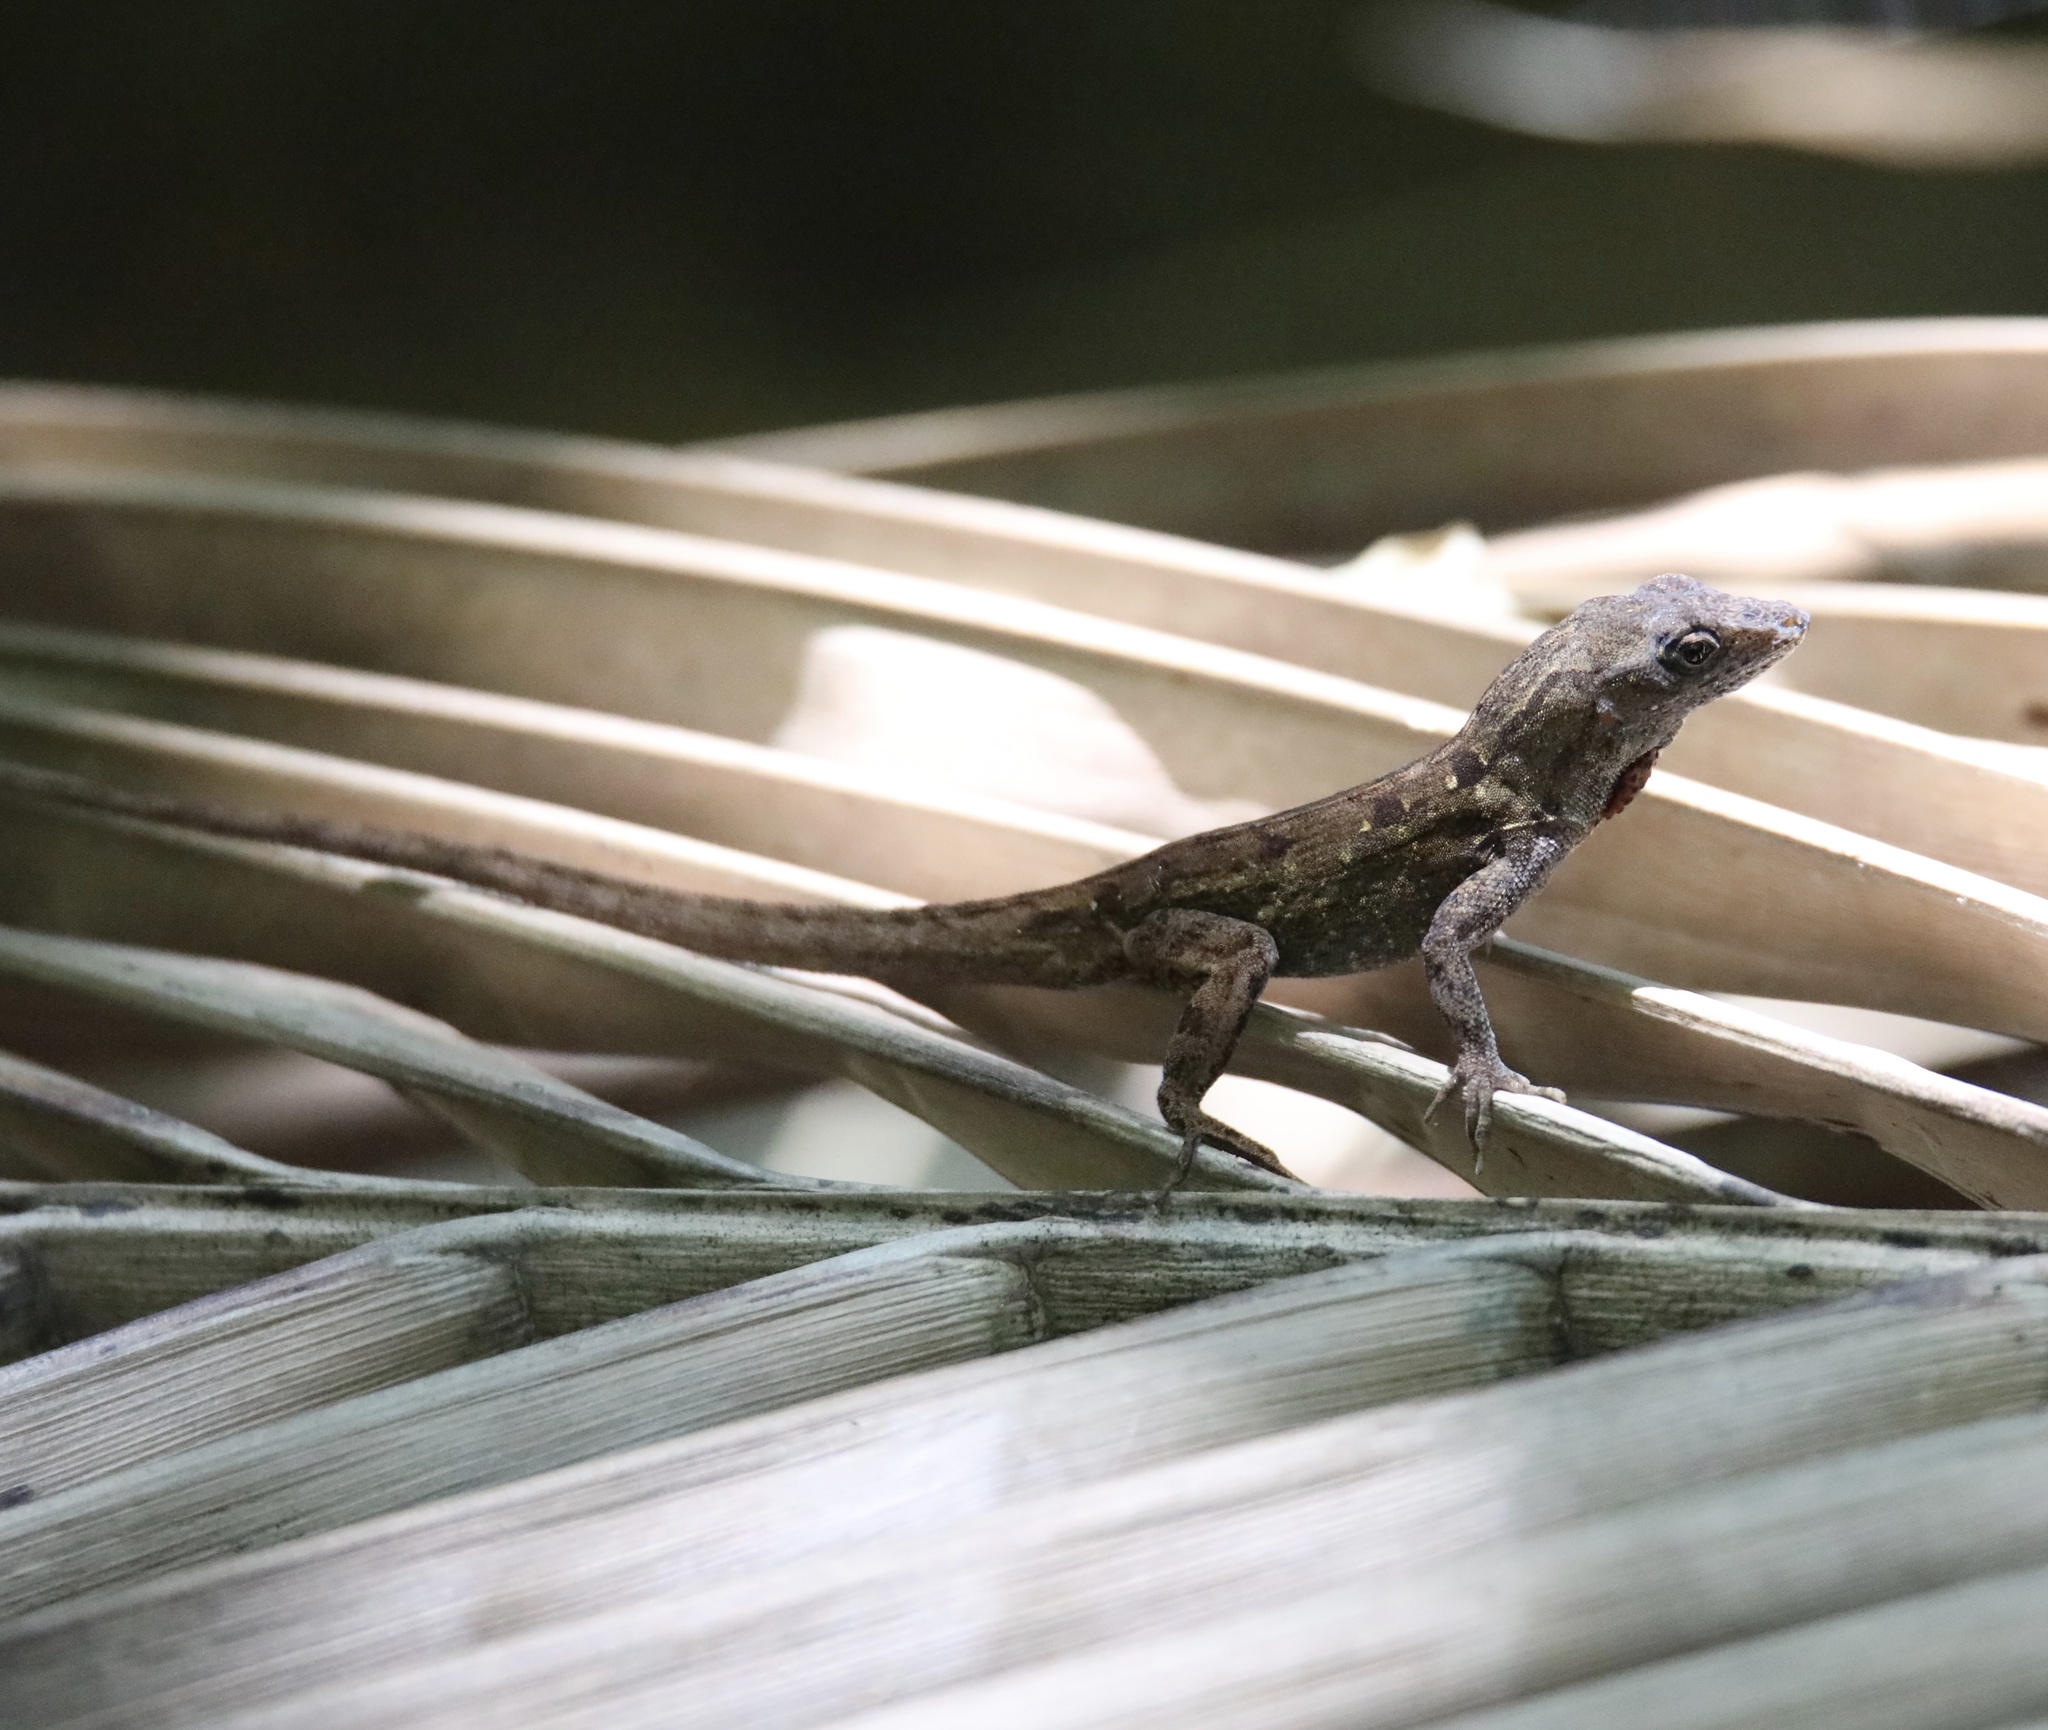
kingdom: Animalia
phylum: Chordata
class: Squamata
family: Dactyloidae
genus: Anolis
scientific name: Anolis sagrei
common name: Brown anole
